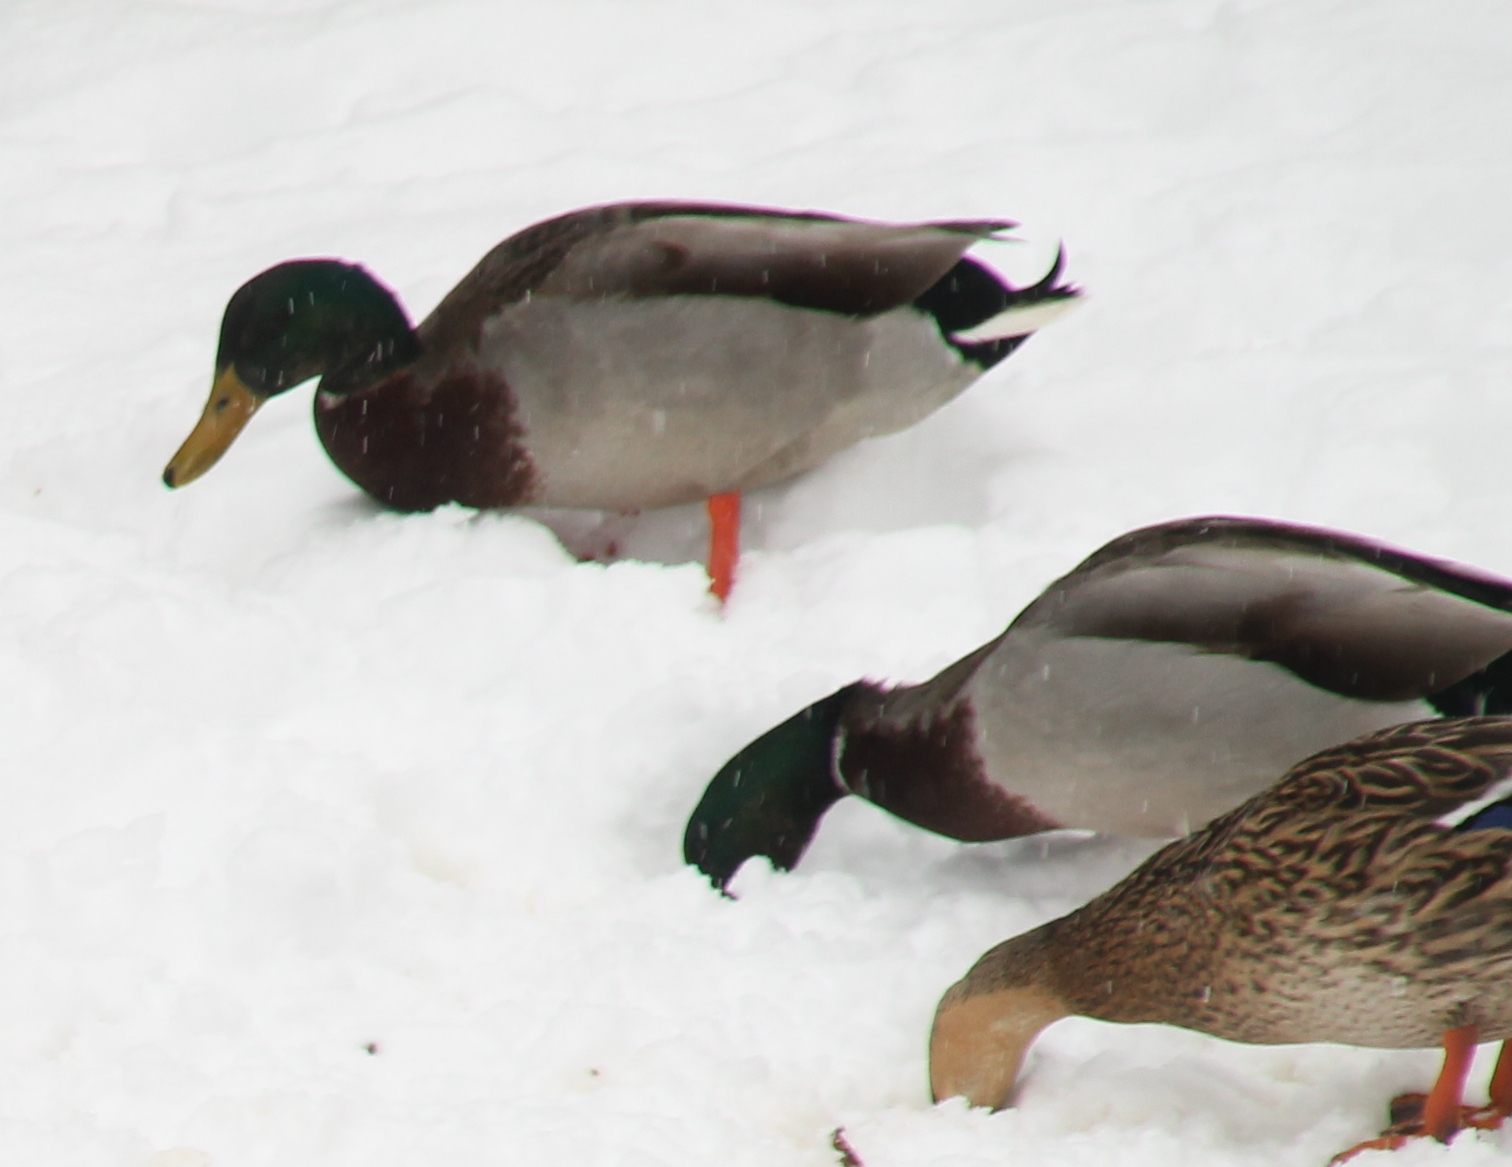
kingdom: Animalia
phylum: Chordata
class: Aves
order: Anseriformes
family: Anatidae
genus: Anas
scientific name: Anas platyrhynchos
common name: Mallard
